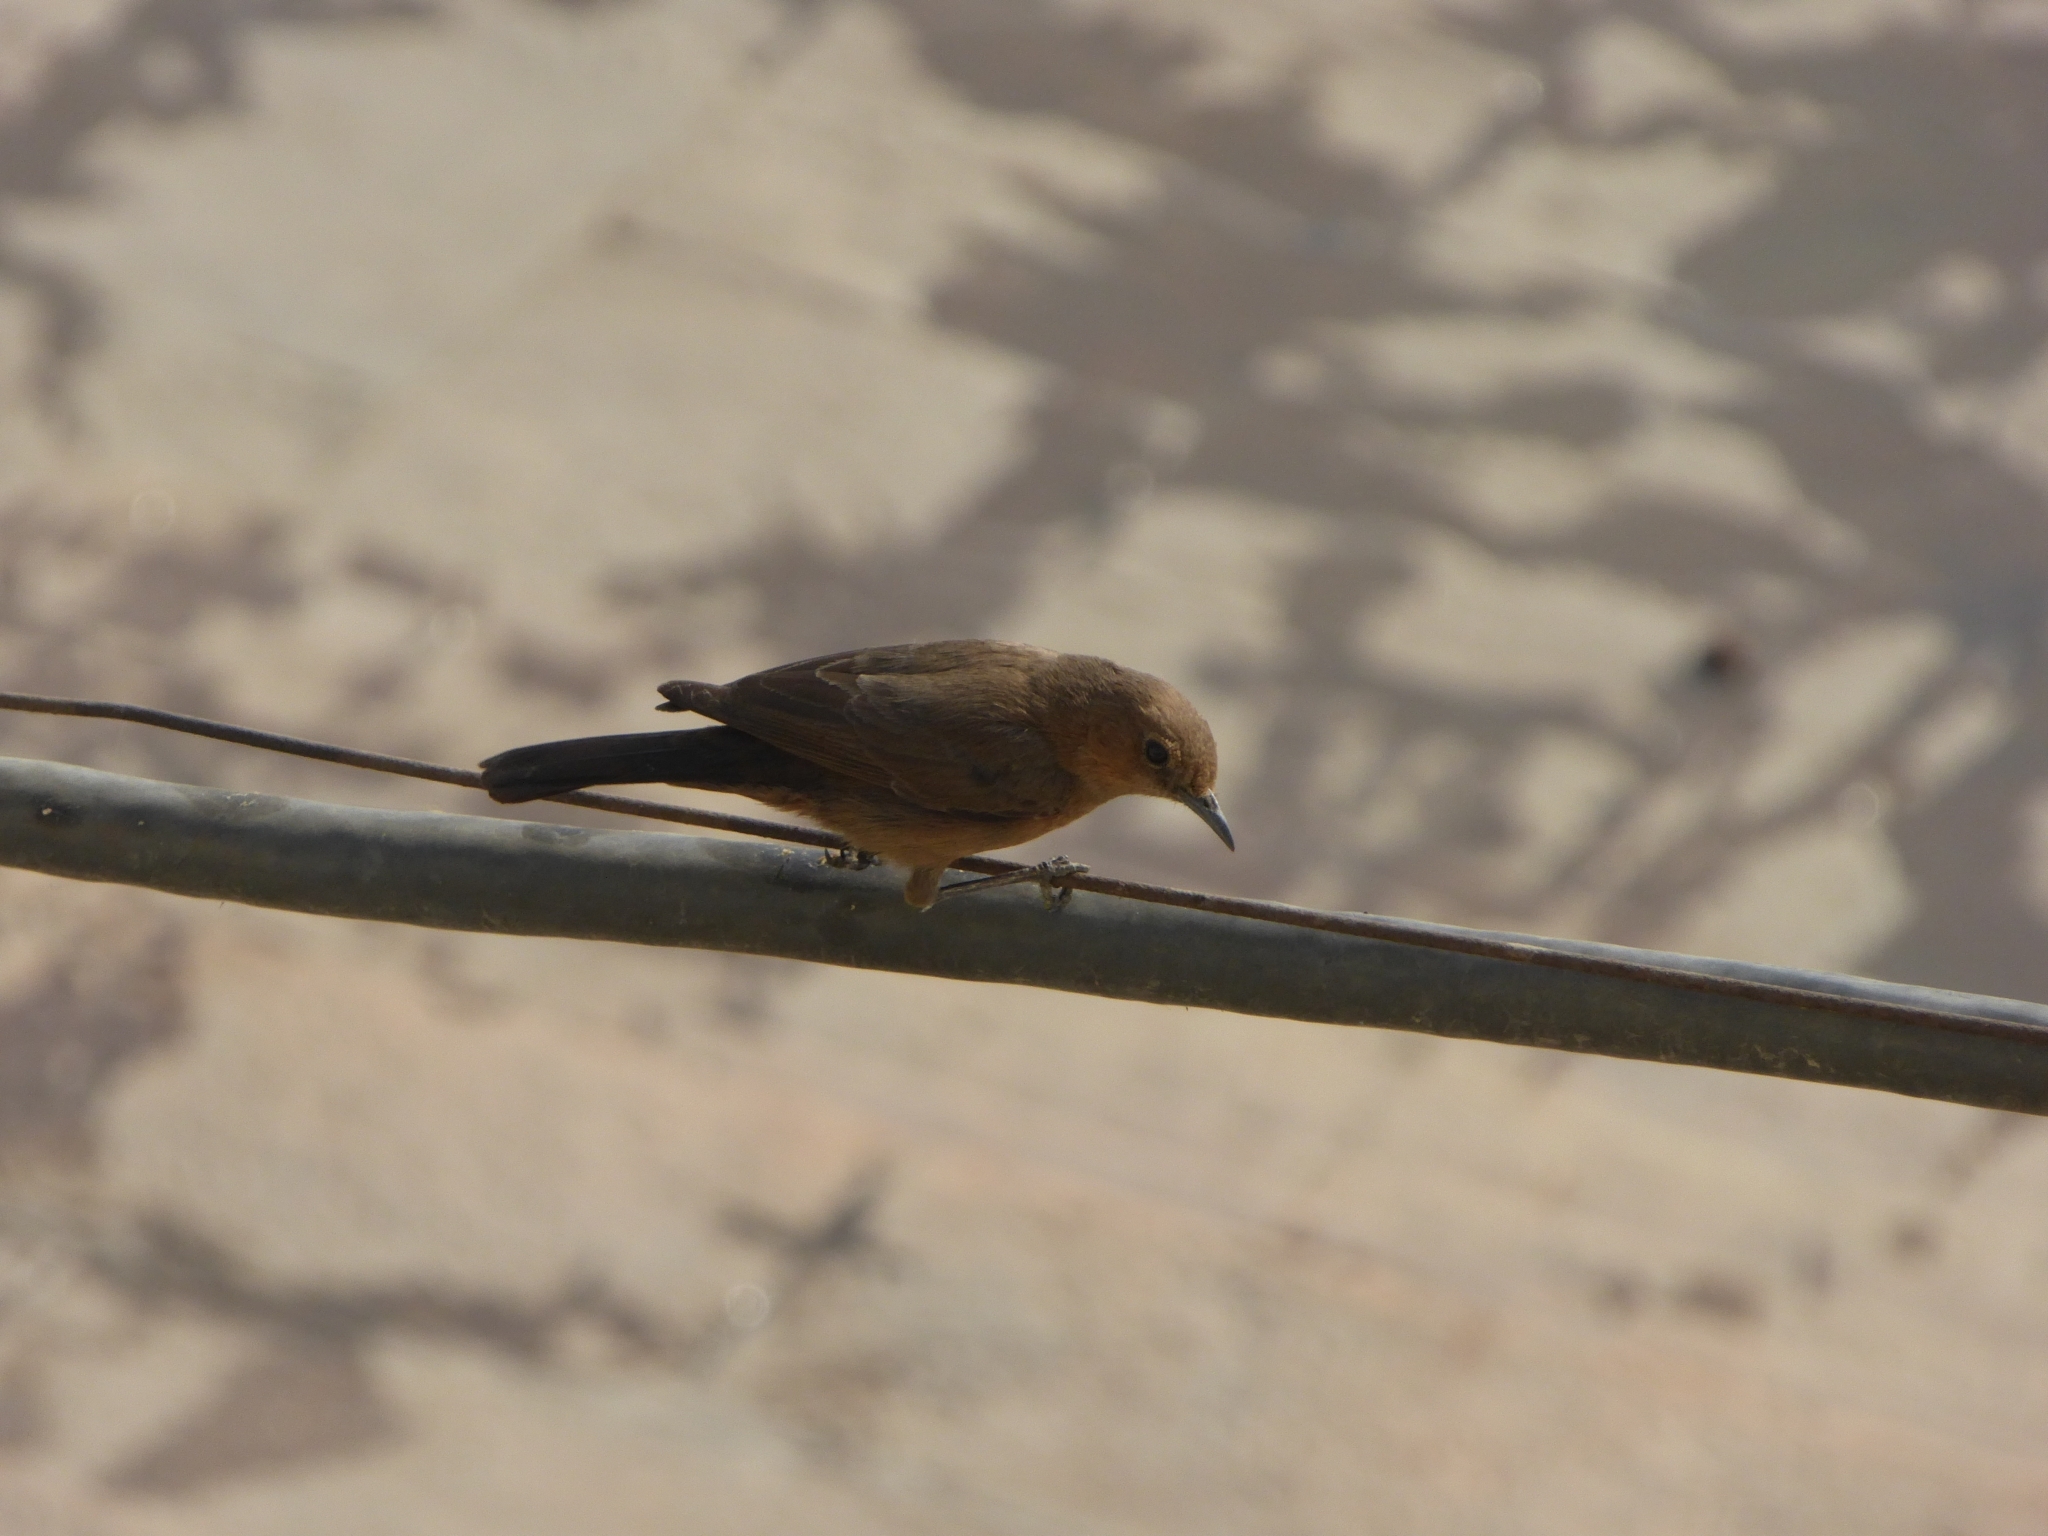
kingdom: Animalia
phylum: Chordata
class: Aves
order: Passeriformes
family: Muscicapidae
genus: Oenanthe
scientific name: Oenanthe fusca
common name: Brown rock chat
